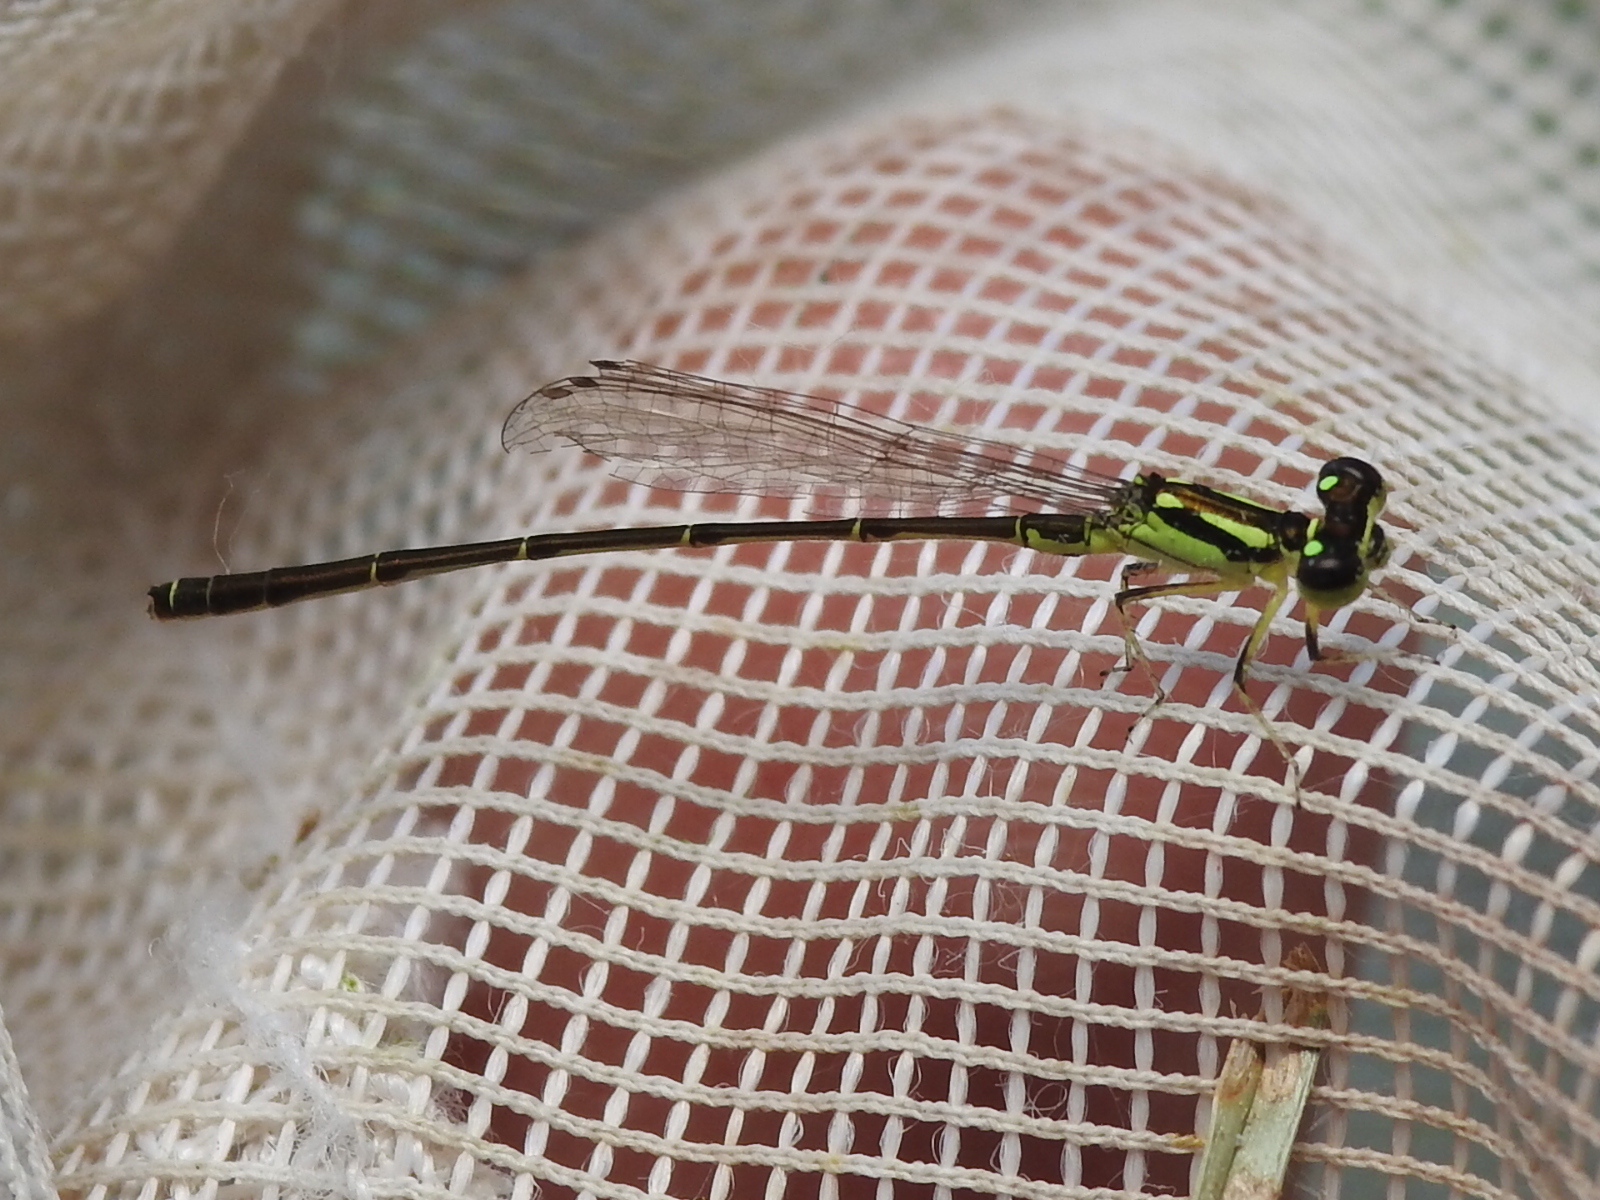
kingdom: Animalia
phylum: Arthropoda
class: Insecta
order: Odonata
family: Coenagrionidae
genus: Ischnura
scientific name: Ischnura posita
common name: Fragile forktail
